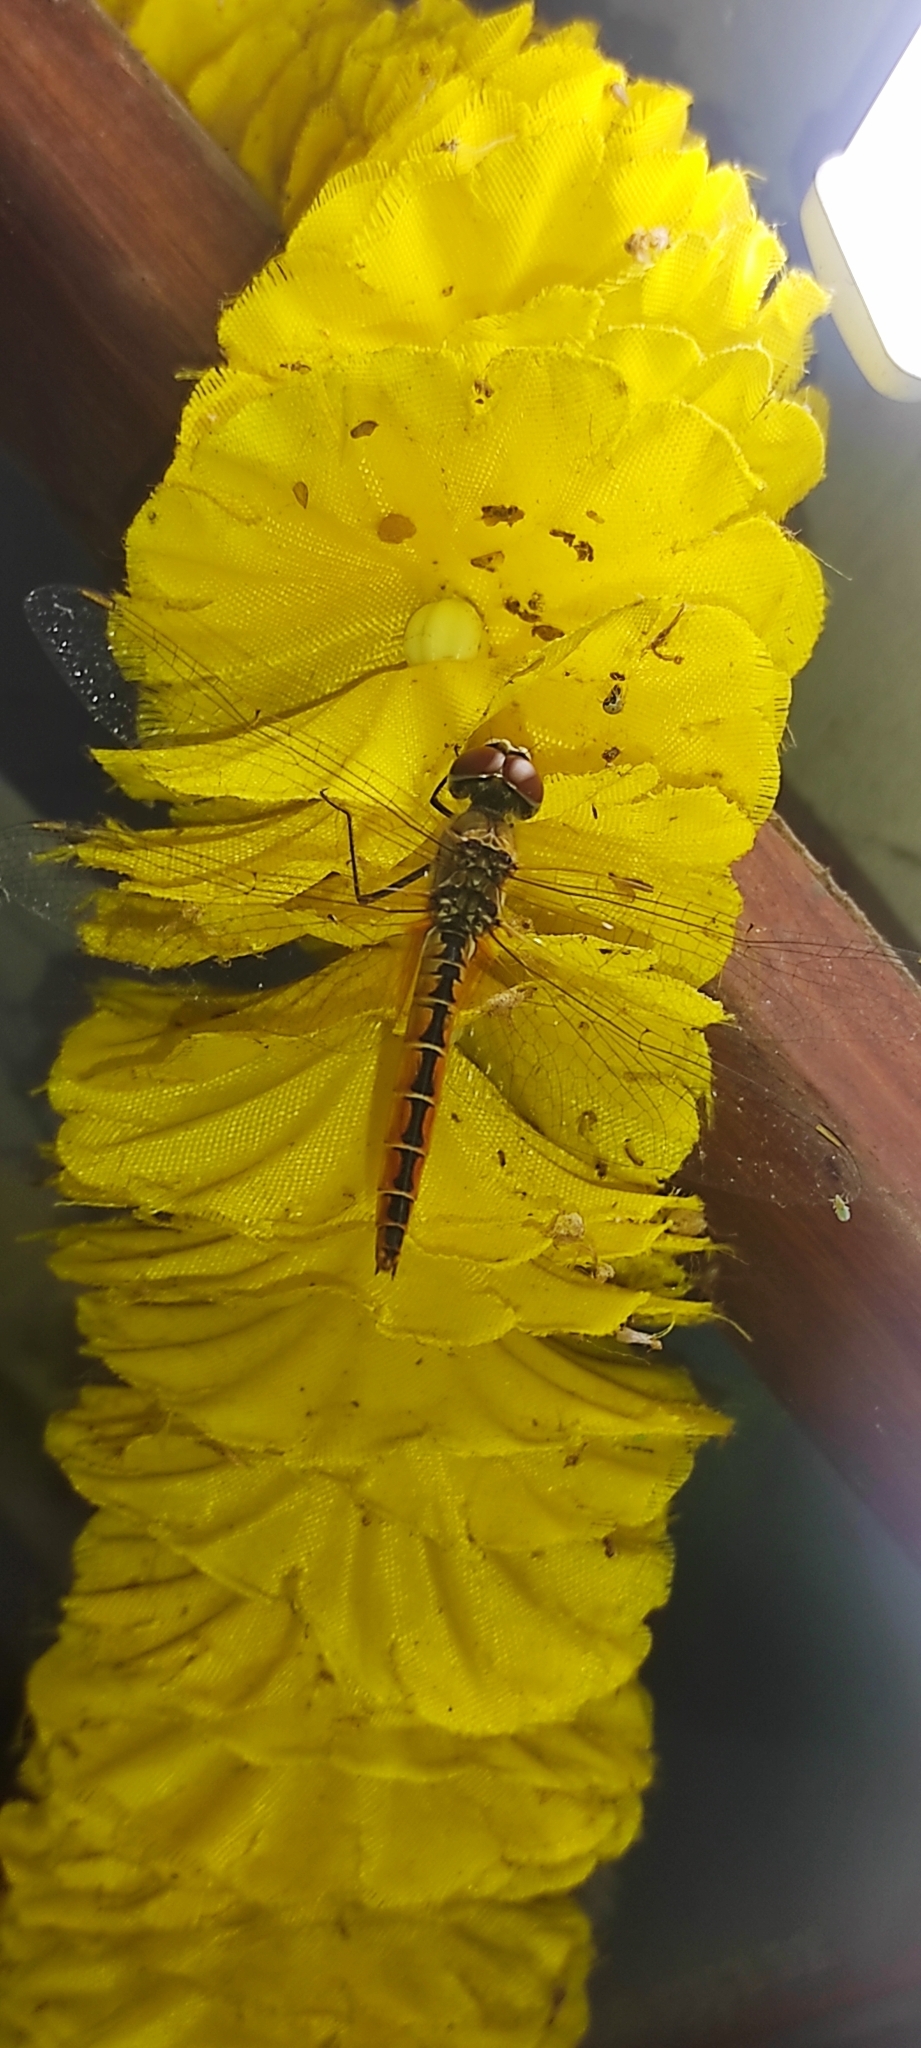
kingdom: Animalia
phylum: Arthropoda
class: Insecta
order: Odonata
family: Libellulidae
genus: Macrodiplax
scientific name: Macrodiplax cora
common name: Coastal glider
